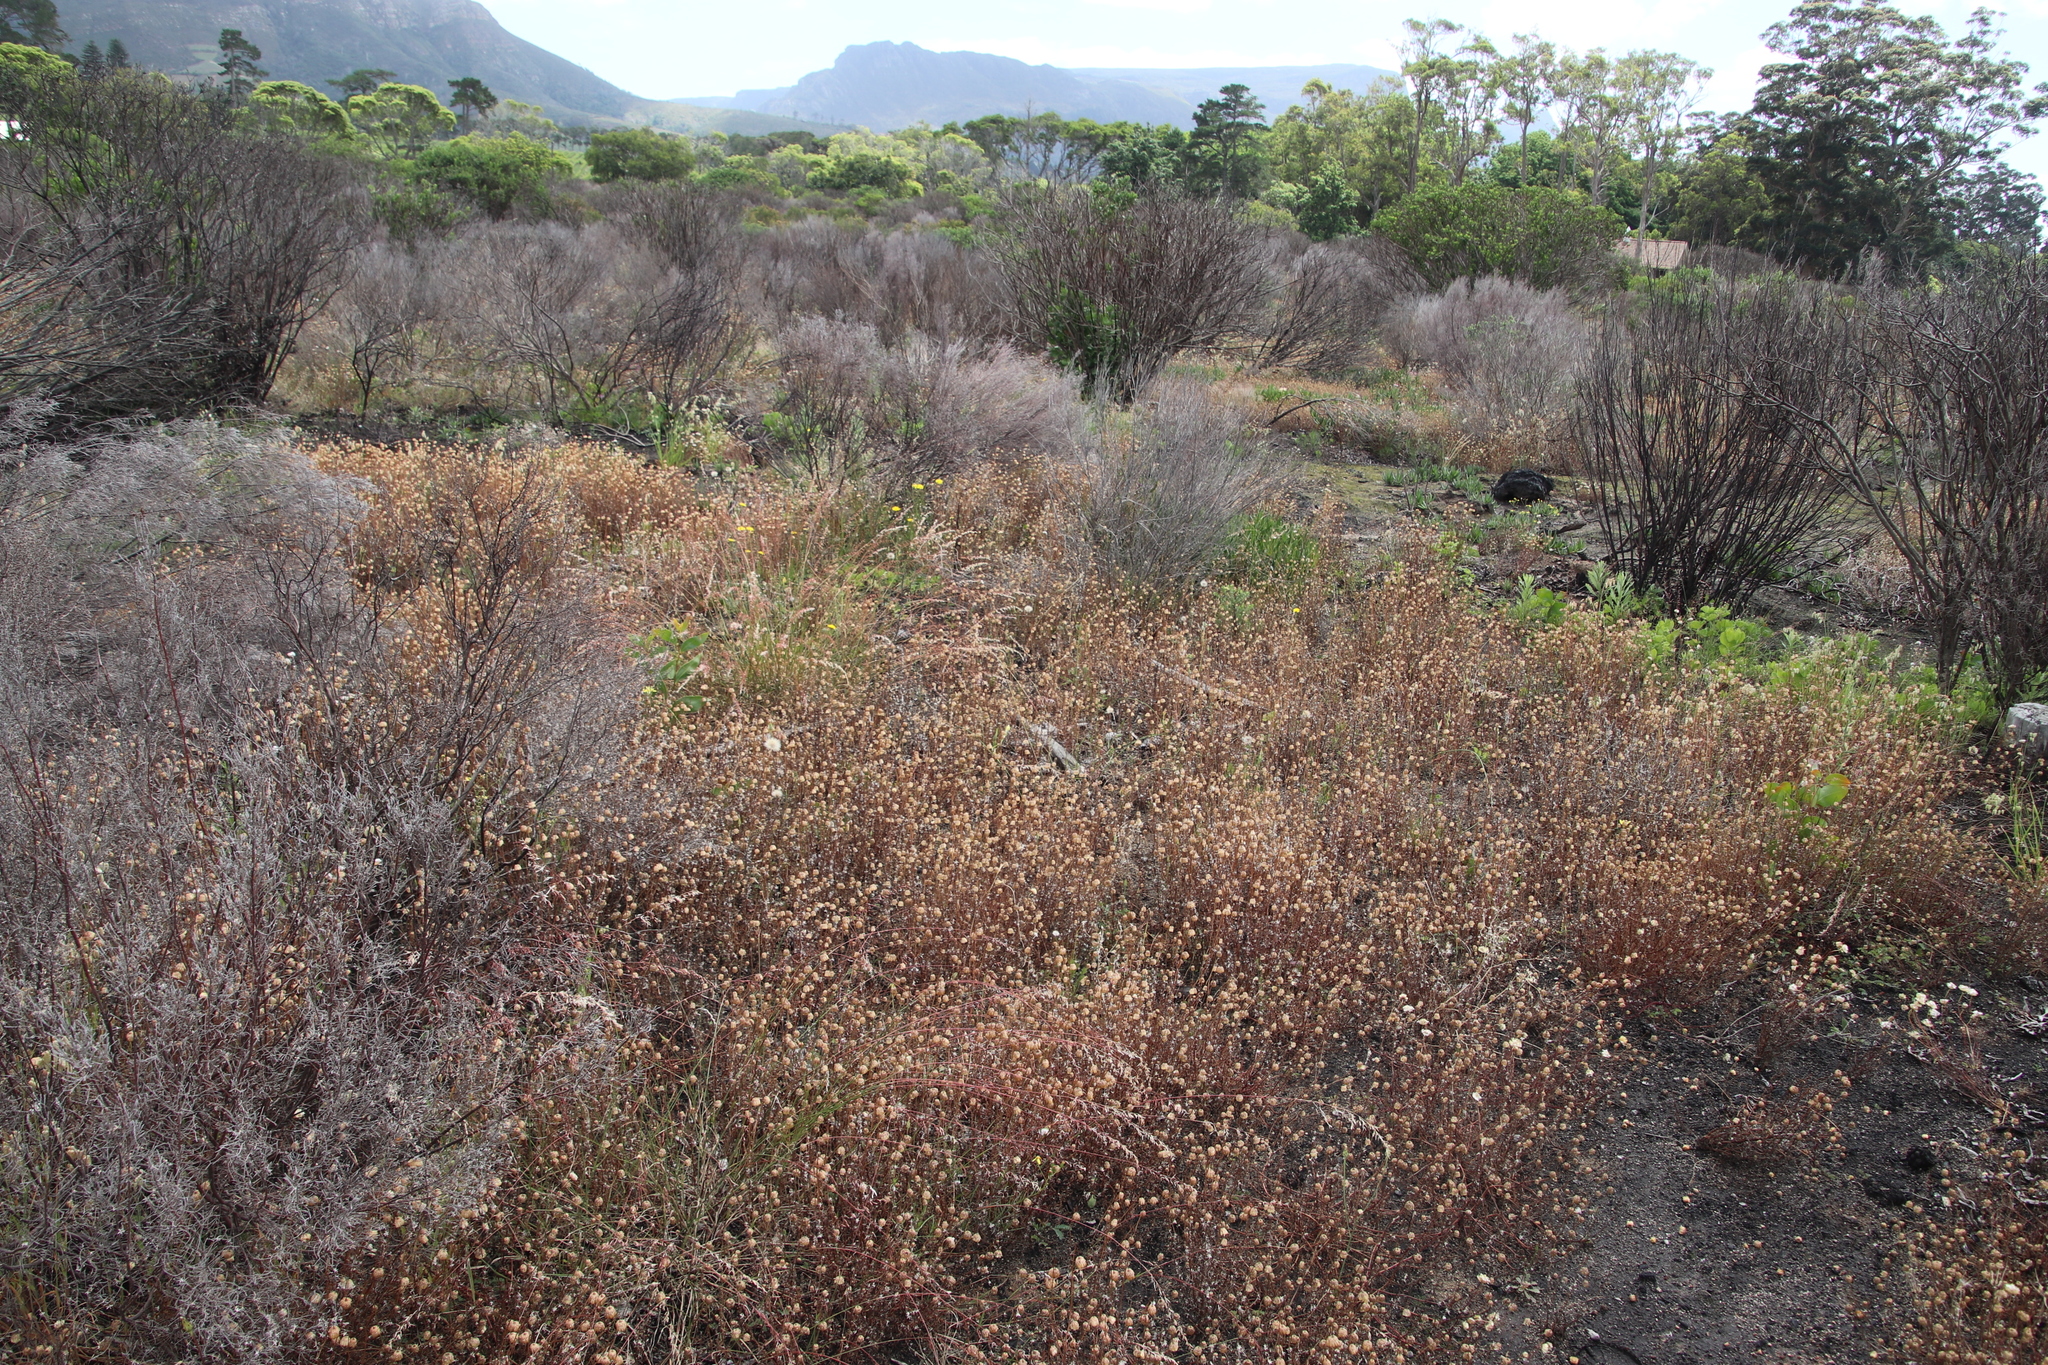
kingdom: Plantae
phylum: Tracheophyta
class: Magnoliopsida
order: Asterales
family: Asteraceae
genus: Ursinia
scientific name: Ursinia anthemoides
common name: Ursinia
